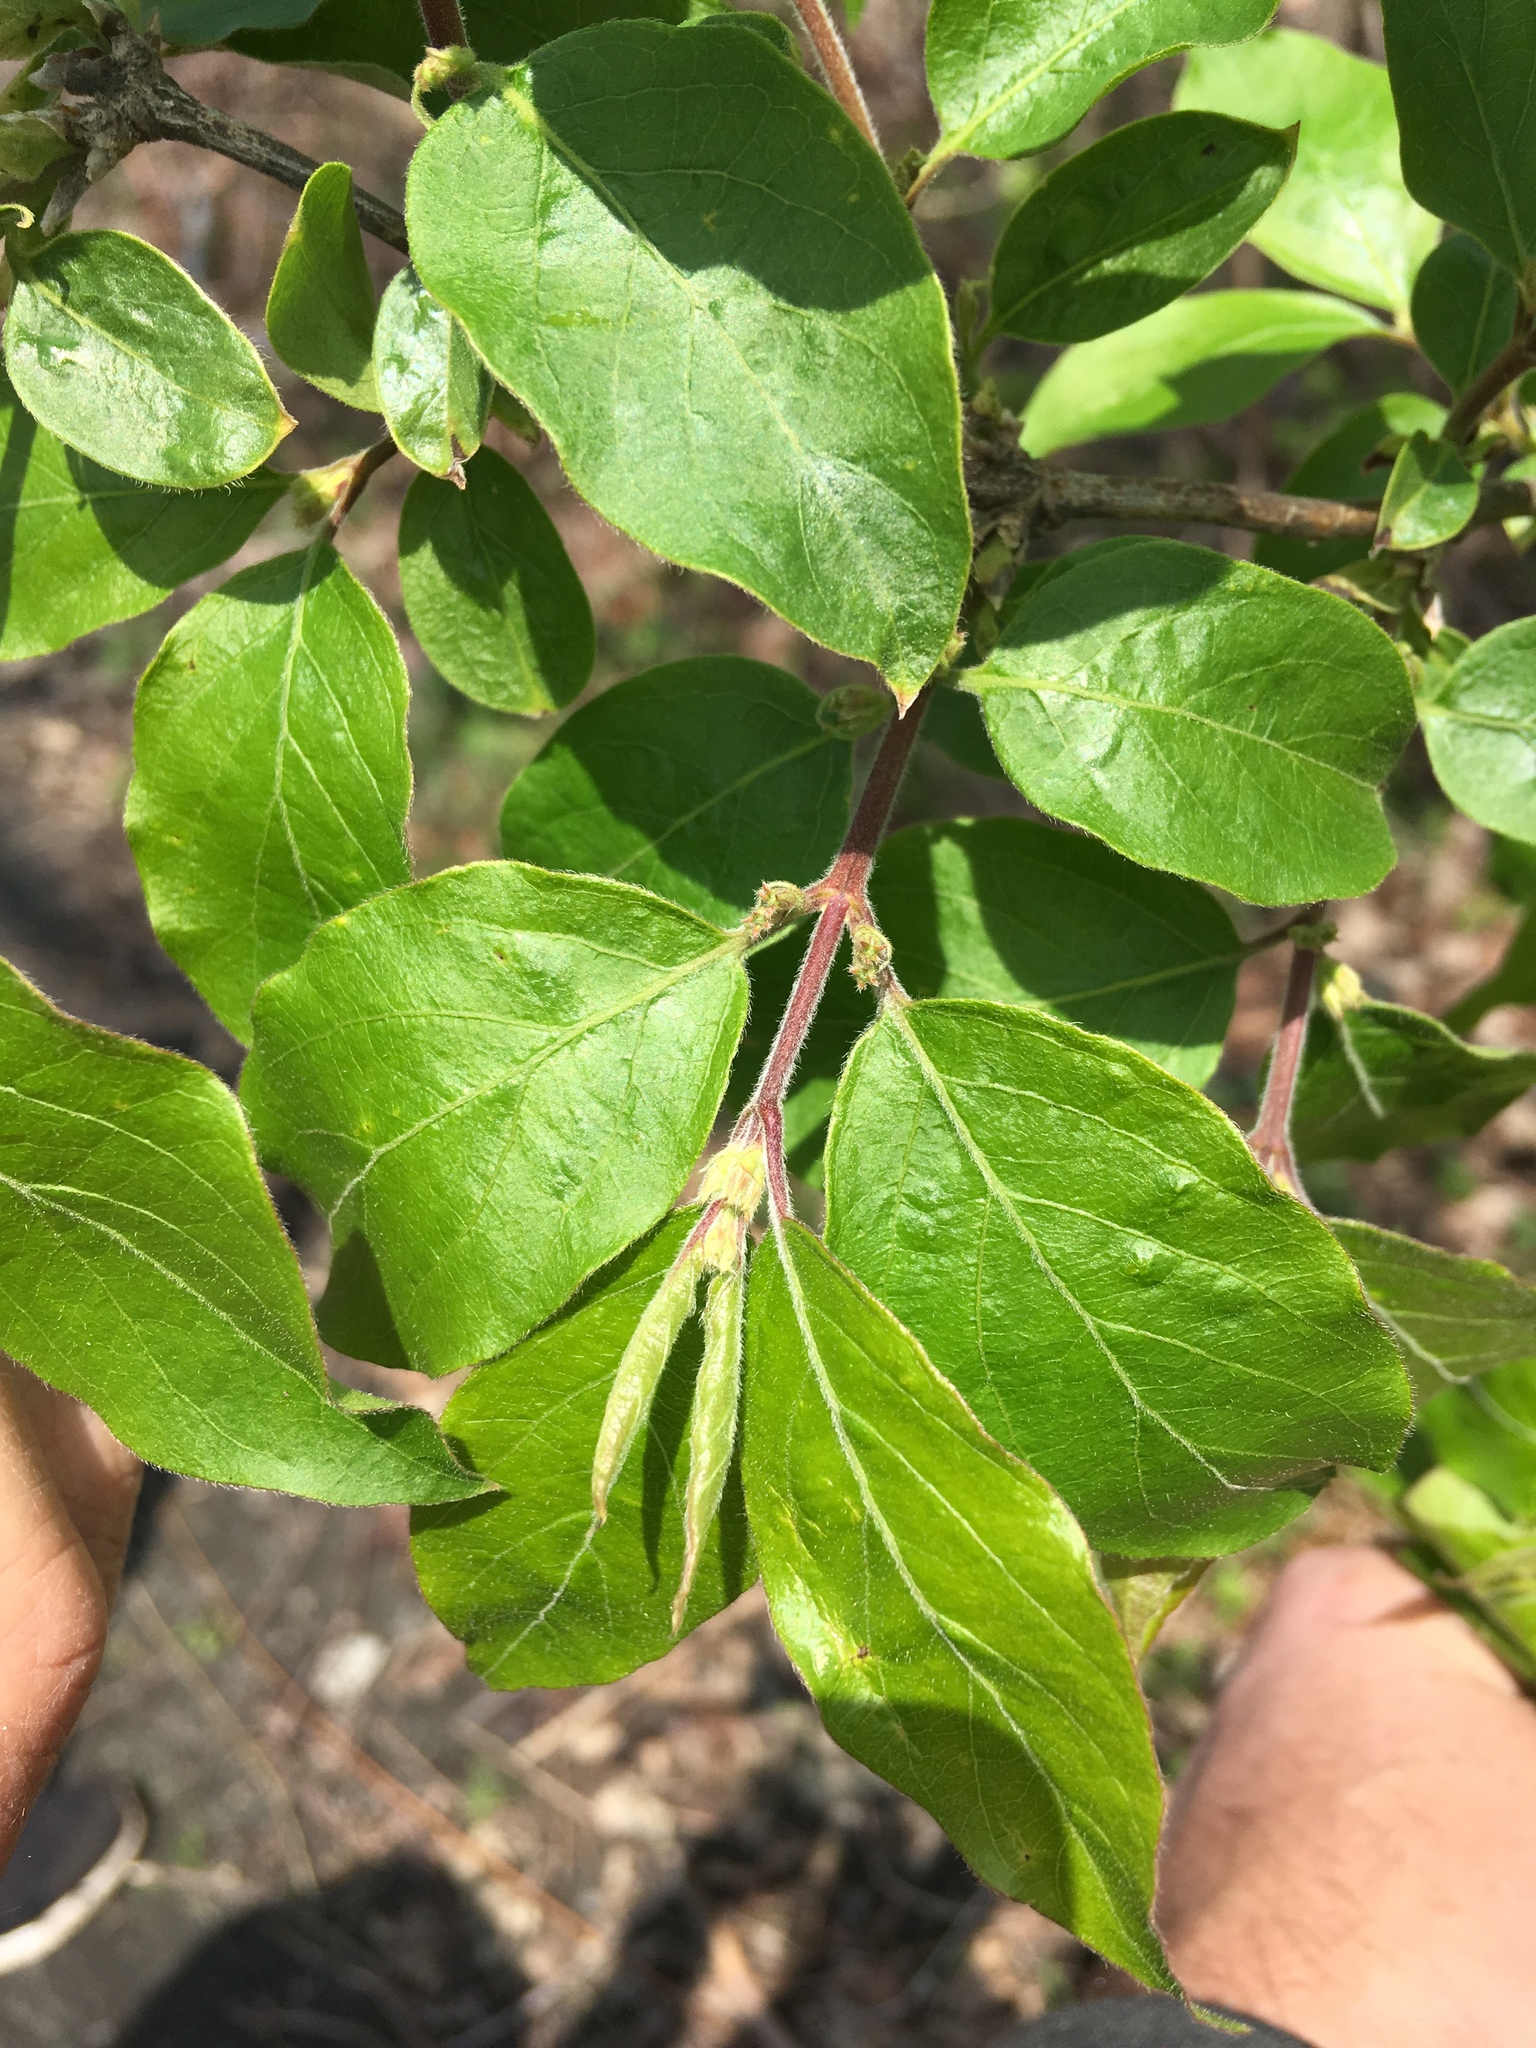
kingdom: Plantae
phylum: Tracheophyta
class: Magnoliopsida
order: Dipsacales
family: Caprifoliaceae
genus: Lonicera
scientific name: Lonicera maackii
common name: Amur honeysuckle
